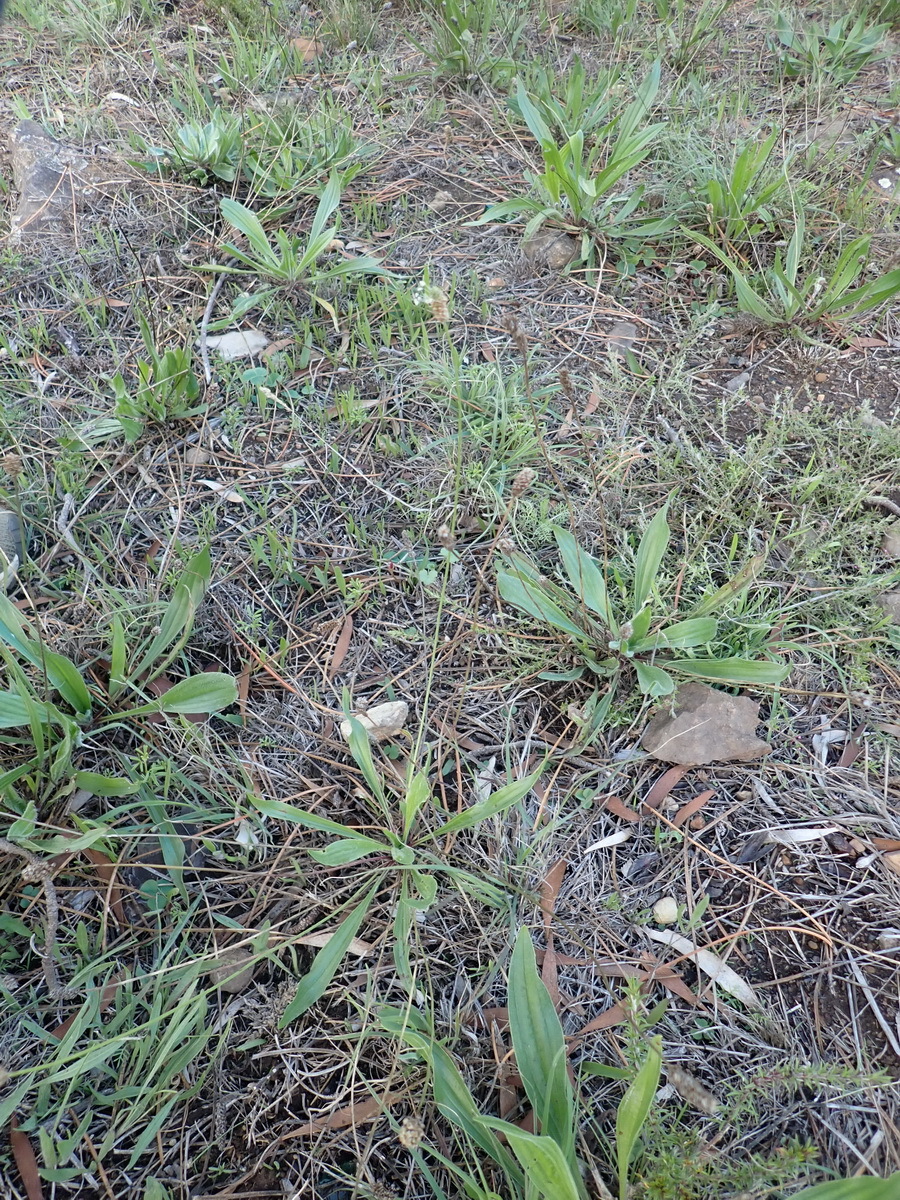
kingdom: Plantae
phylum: Tracheophyta
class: Magnoliopsida
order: Lamiales
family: Plantaginaceae
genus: Plantago
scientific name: Plantago lanceolata
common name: Ribwort plantain
